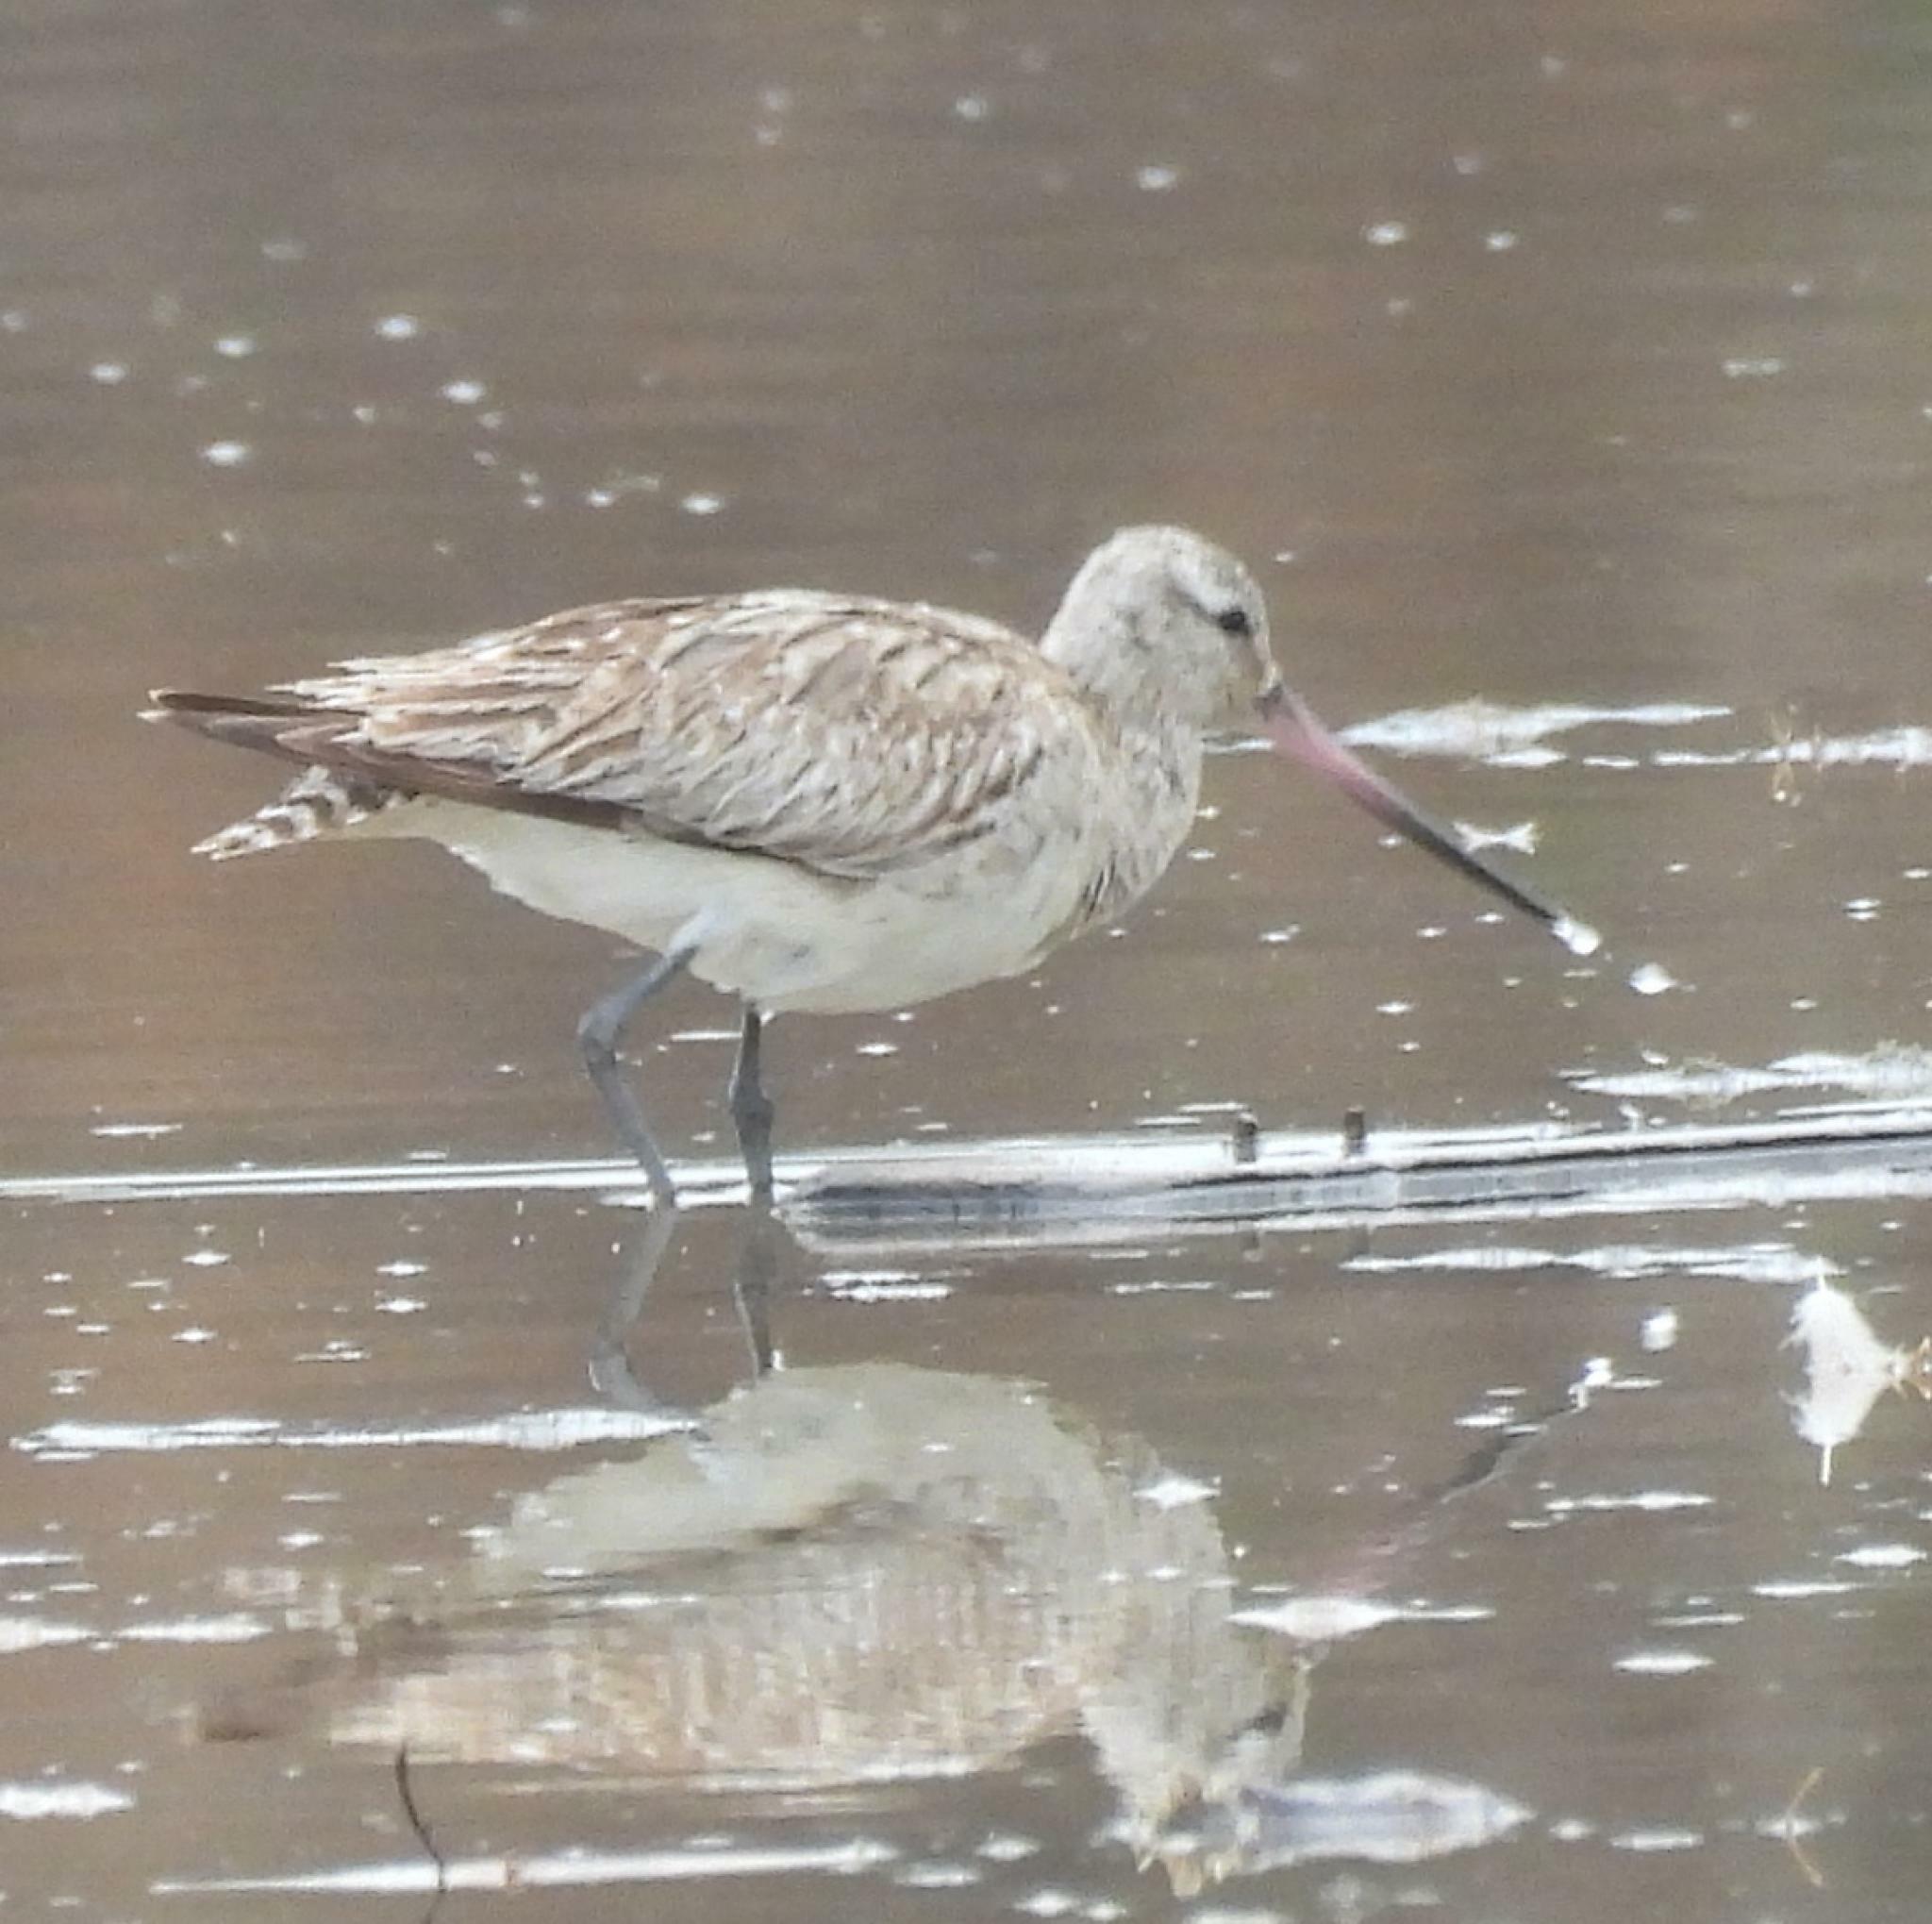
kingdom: Animalia
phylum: Chordata
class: Aves
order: Charadriiformes
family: Scolopacidae
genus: Limosa
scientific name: Limosa lapponica
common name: Bar-tailed godwit
